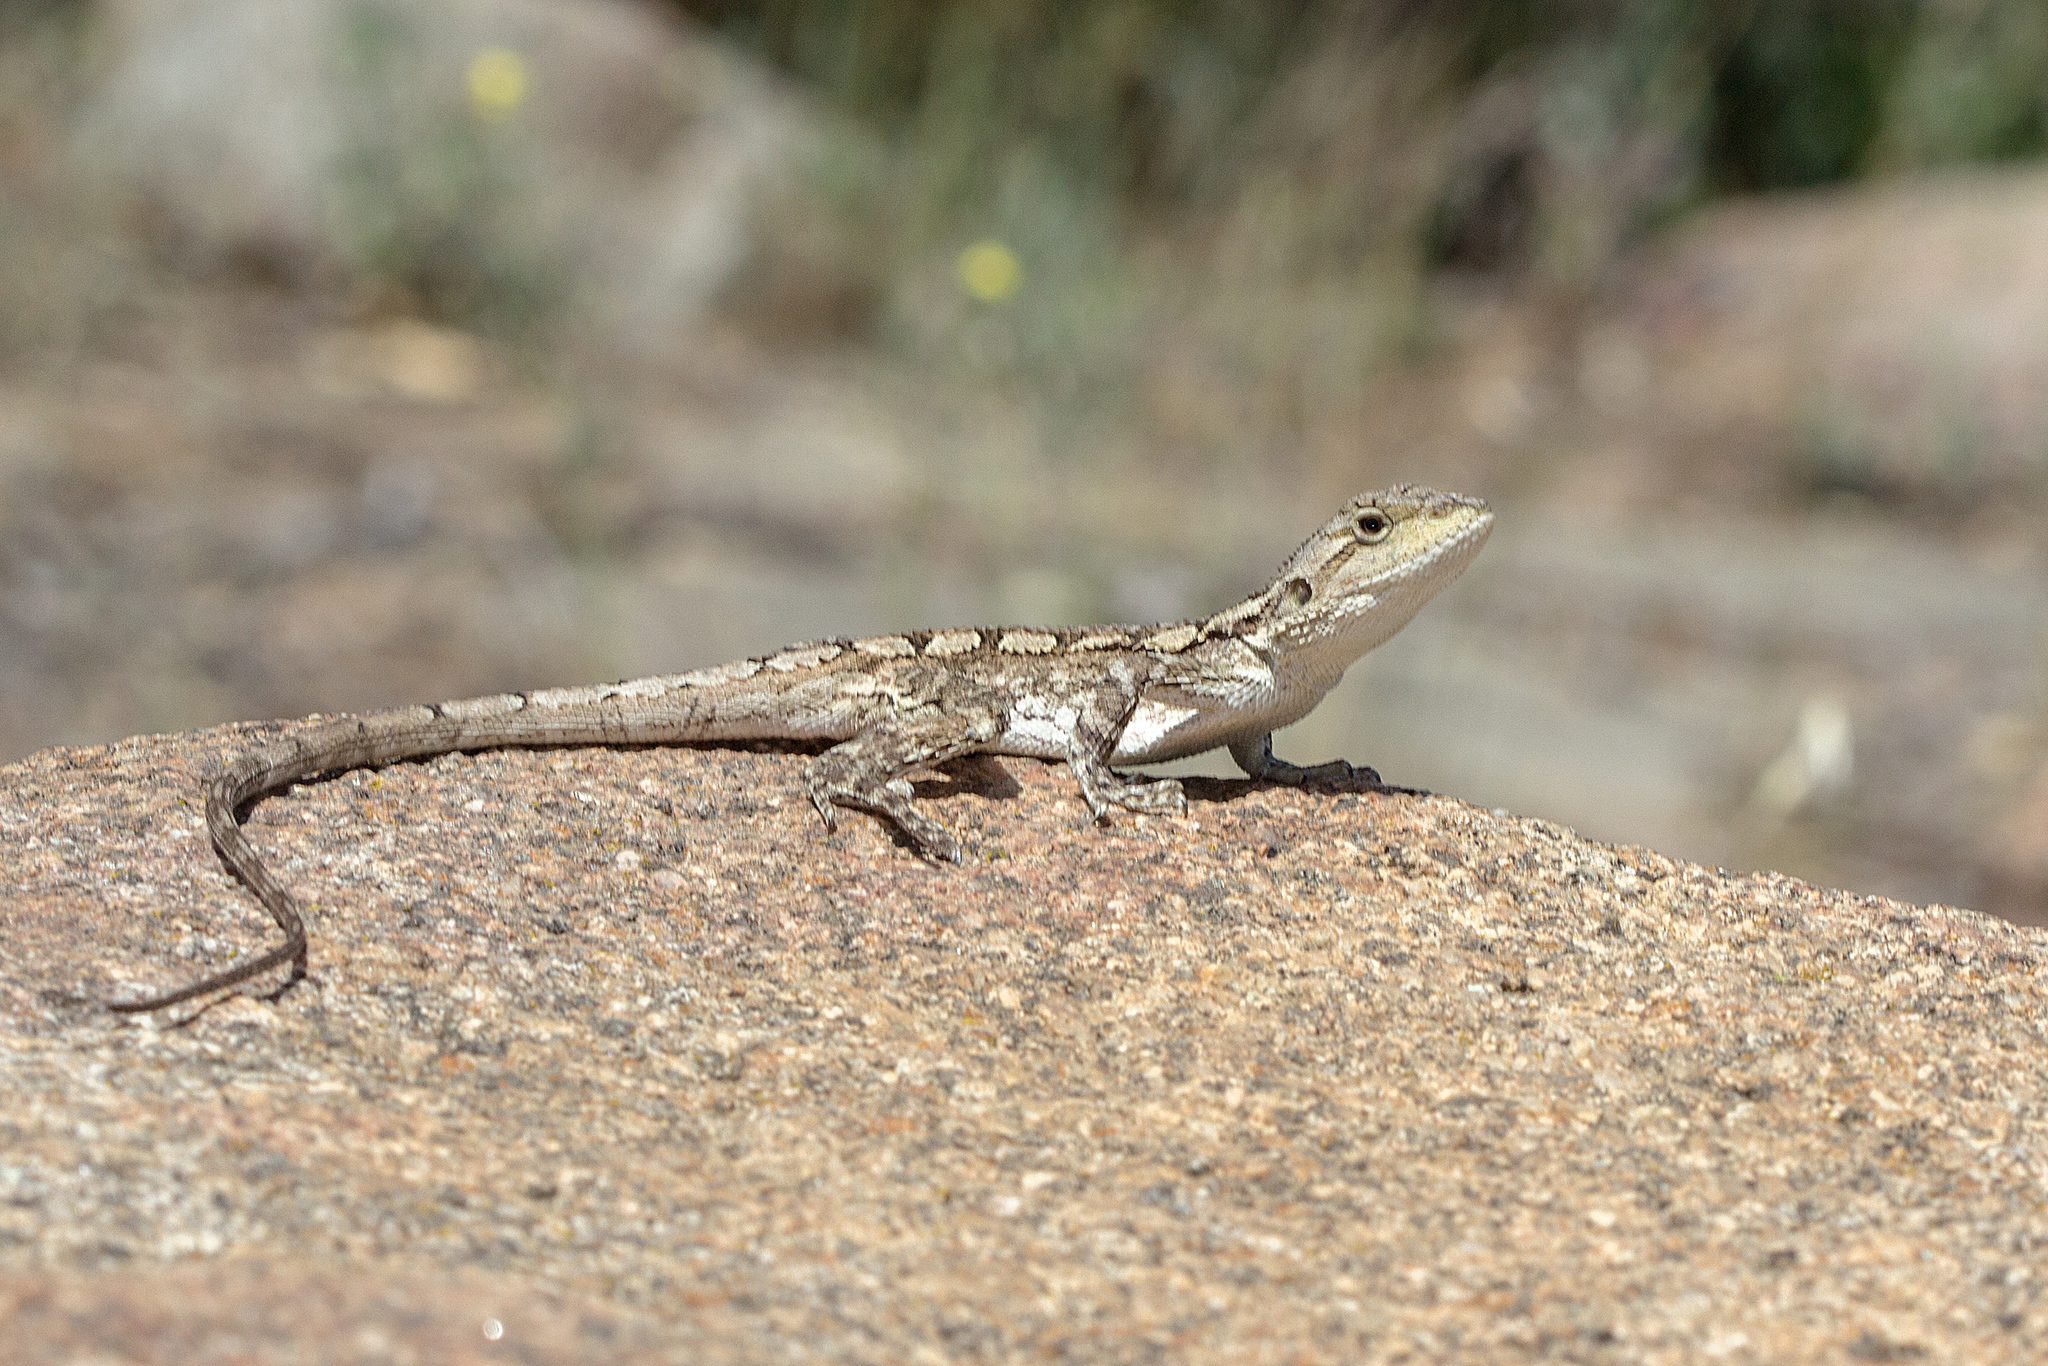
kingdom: Animalia
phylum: Chordata
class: Squamata
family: Agamidae
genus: Amphibolurus
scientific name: Amphibolurus muricatus
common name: Jacky lizard
